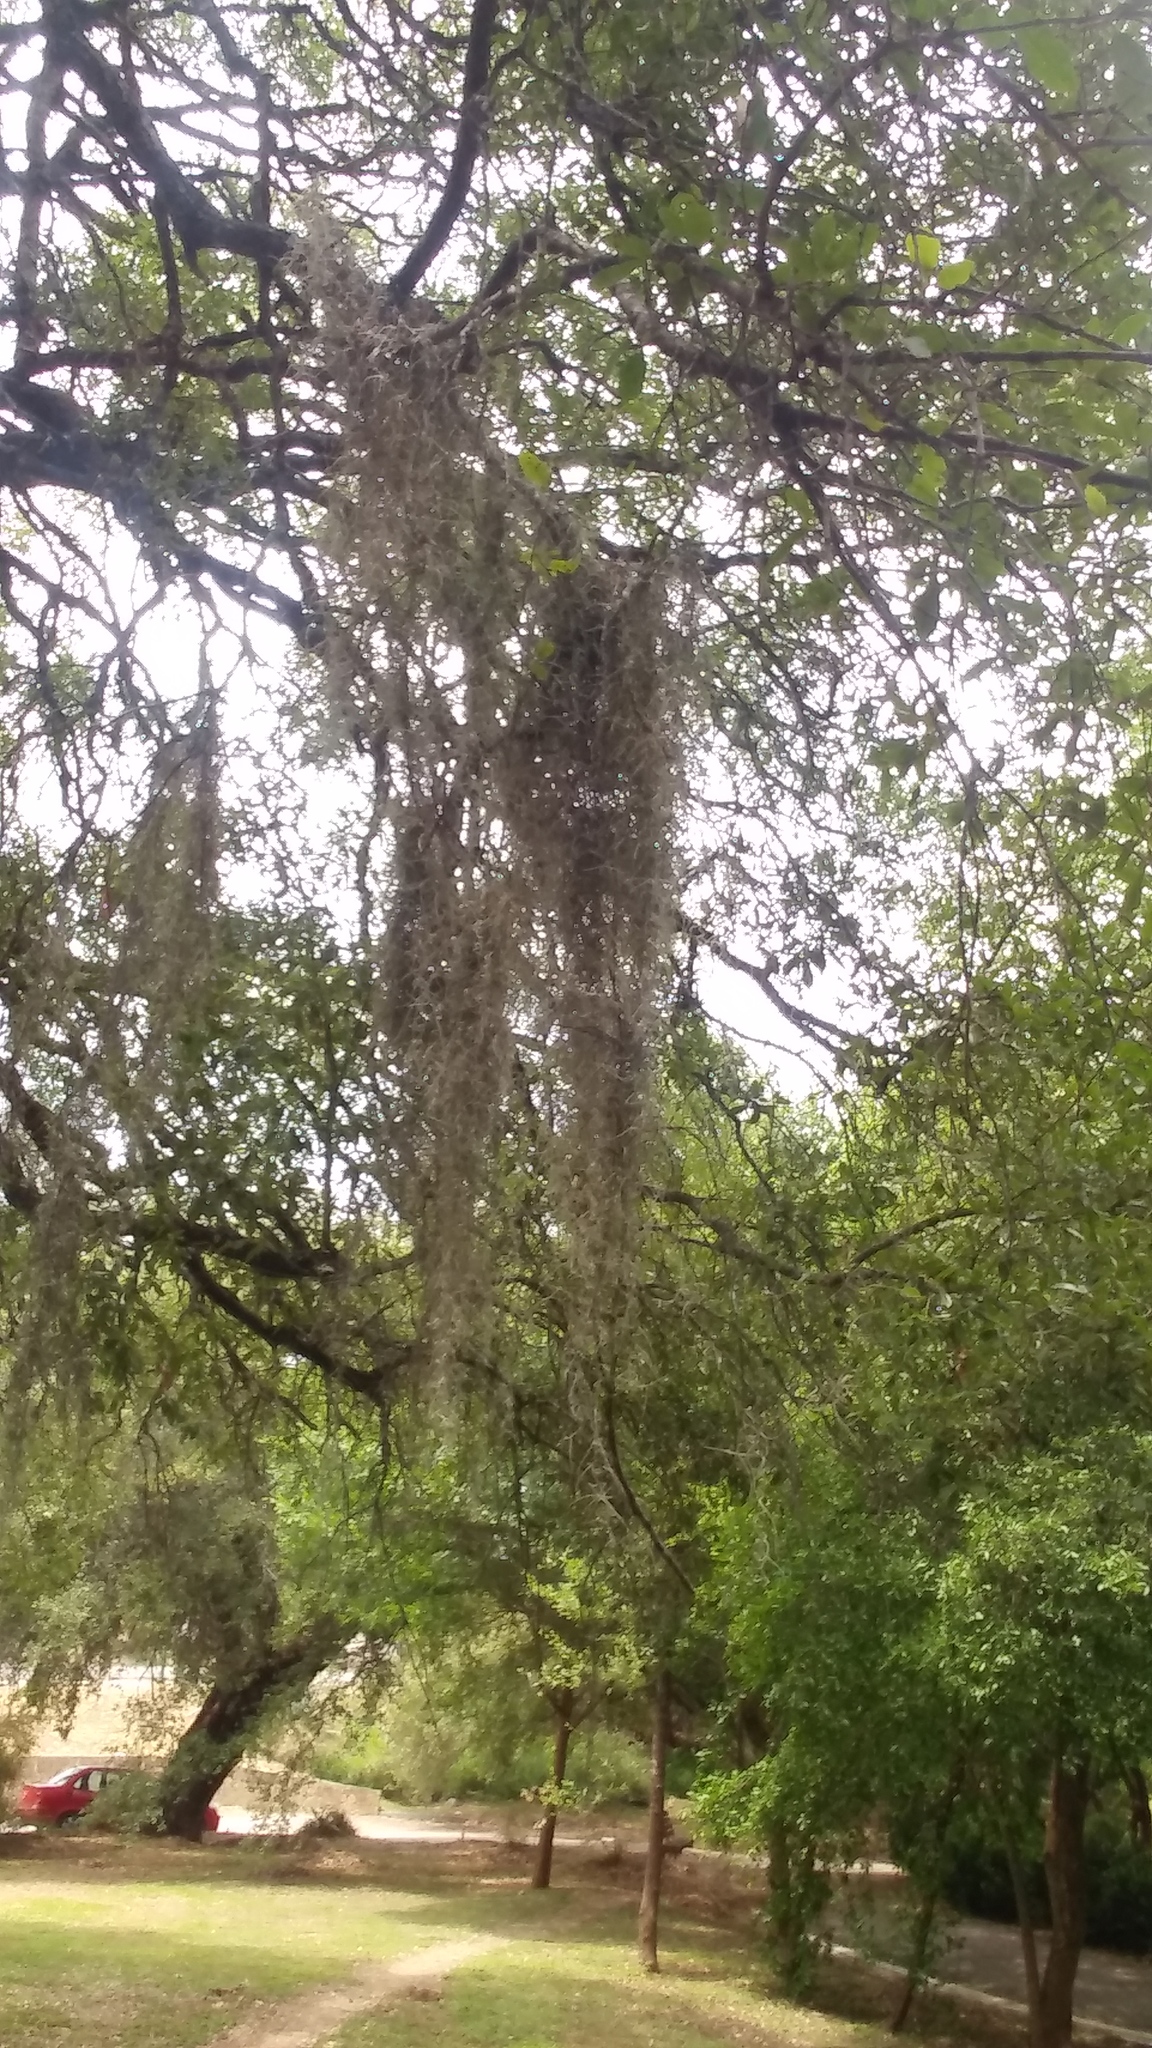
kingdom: Plantae
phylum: Tracheophyta
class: Liliopsida
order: Poales
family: Bromeliaceae
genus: Tillandsia
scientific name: Tillandsia usneoides
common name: Spanish moss
